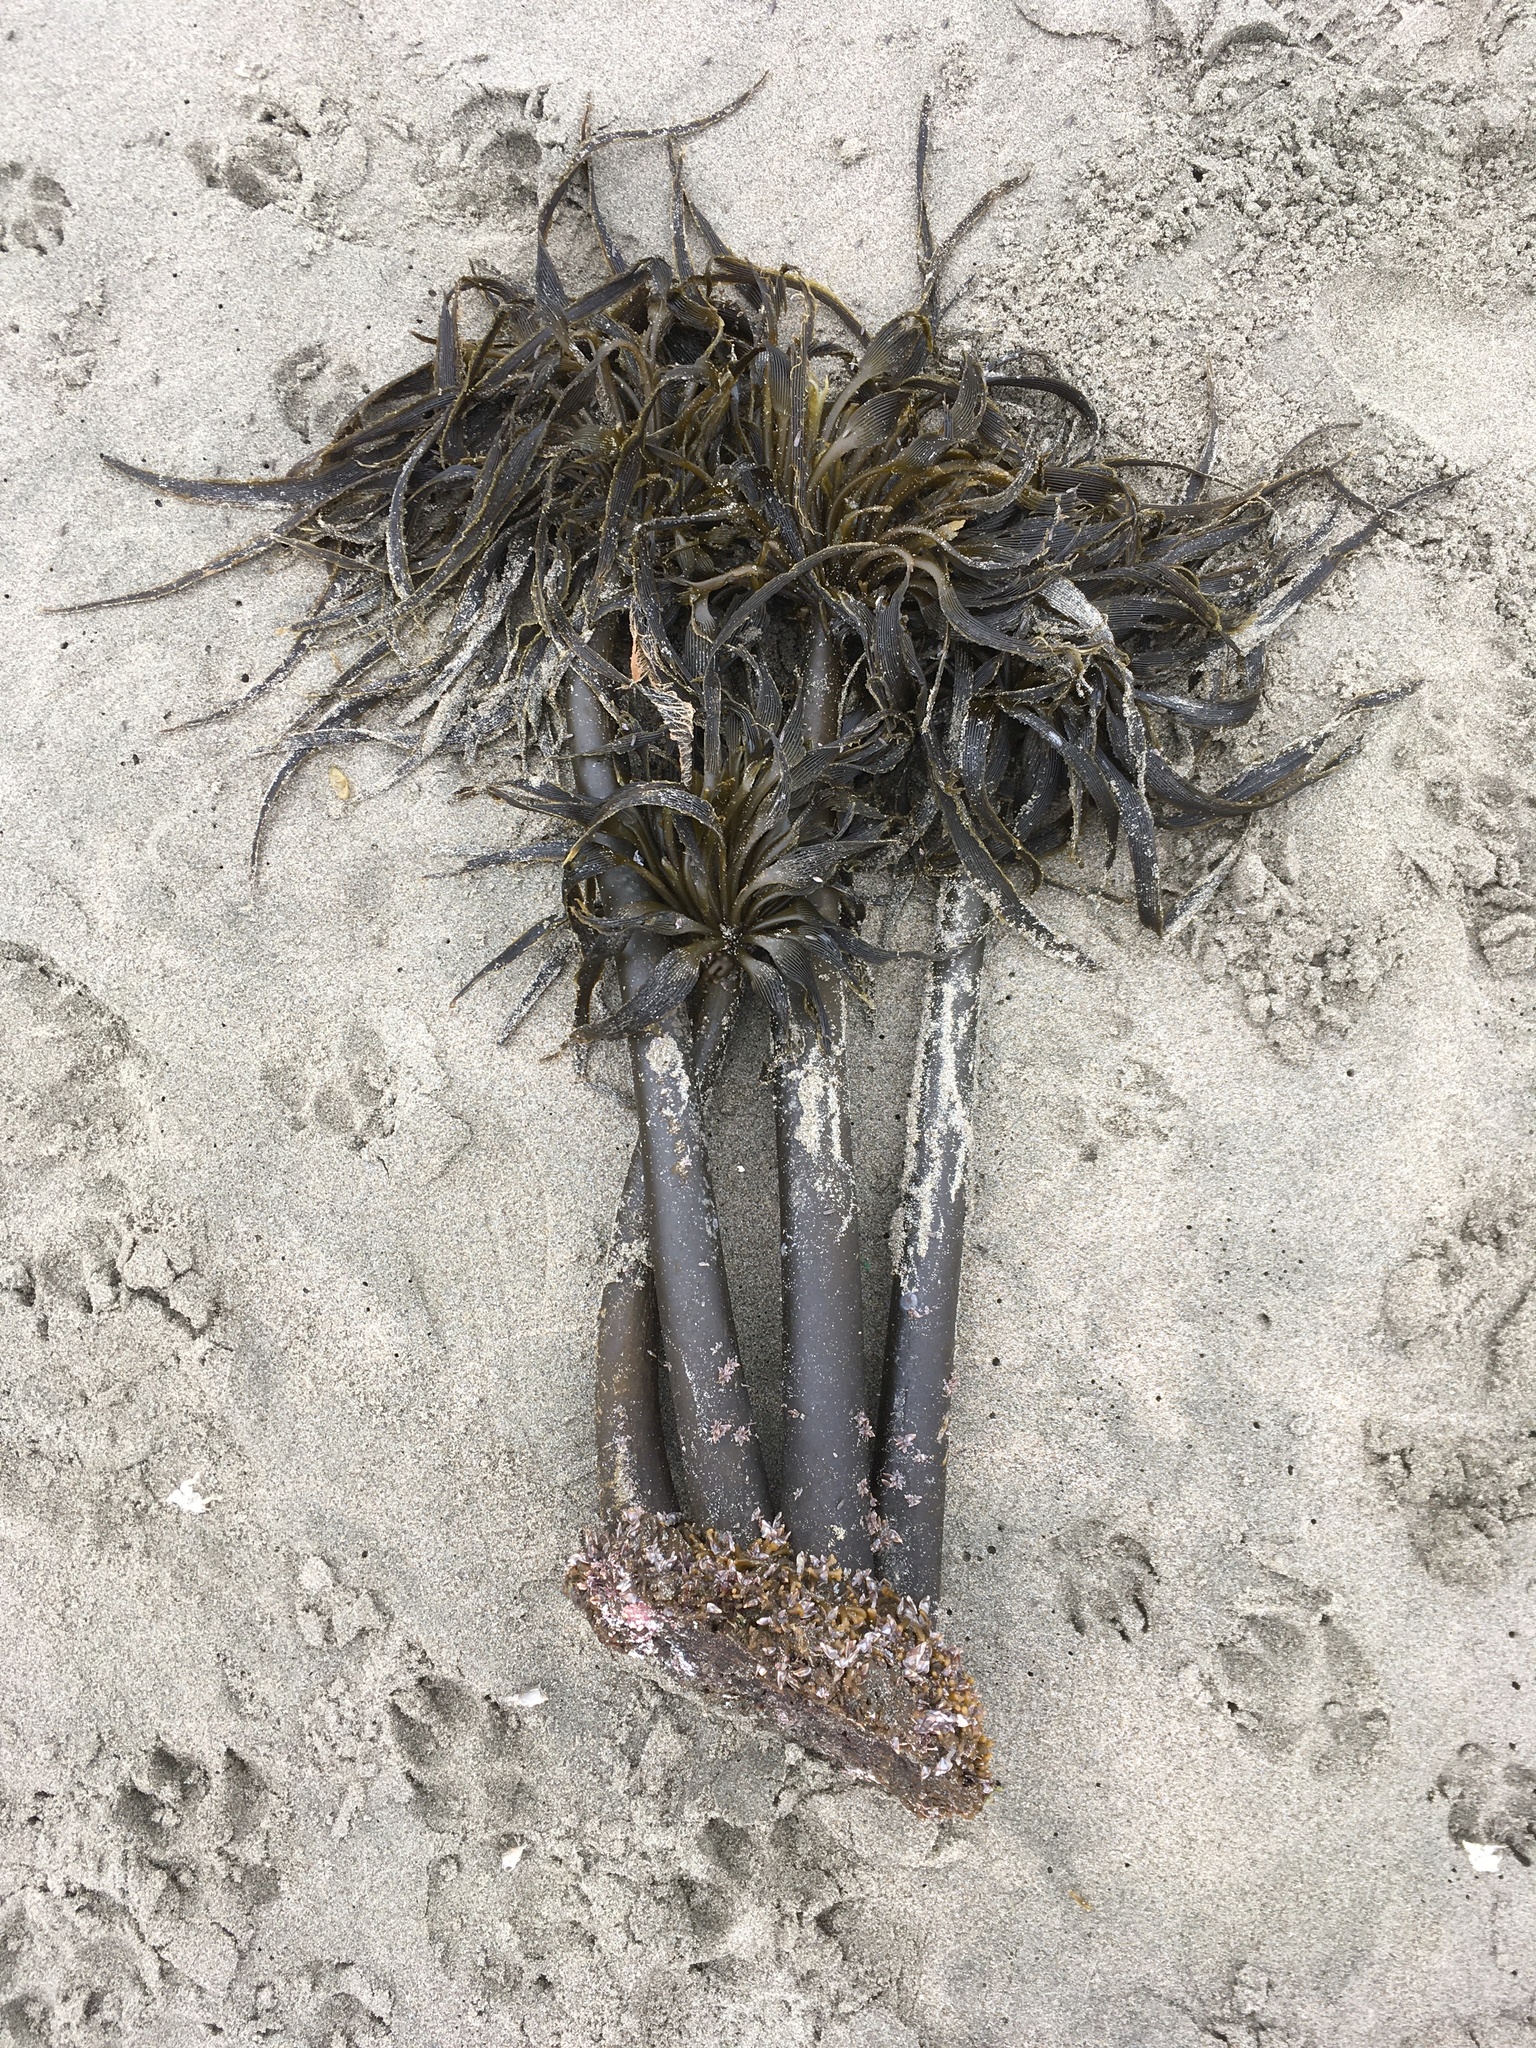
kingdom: Chromista
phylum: Ochrophyta
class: Phaeophyceae
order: Laminariales
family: Laminariaceae
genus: Postelsia
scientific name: Postelsia palmiformis
